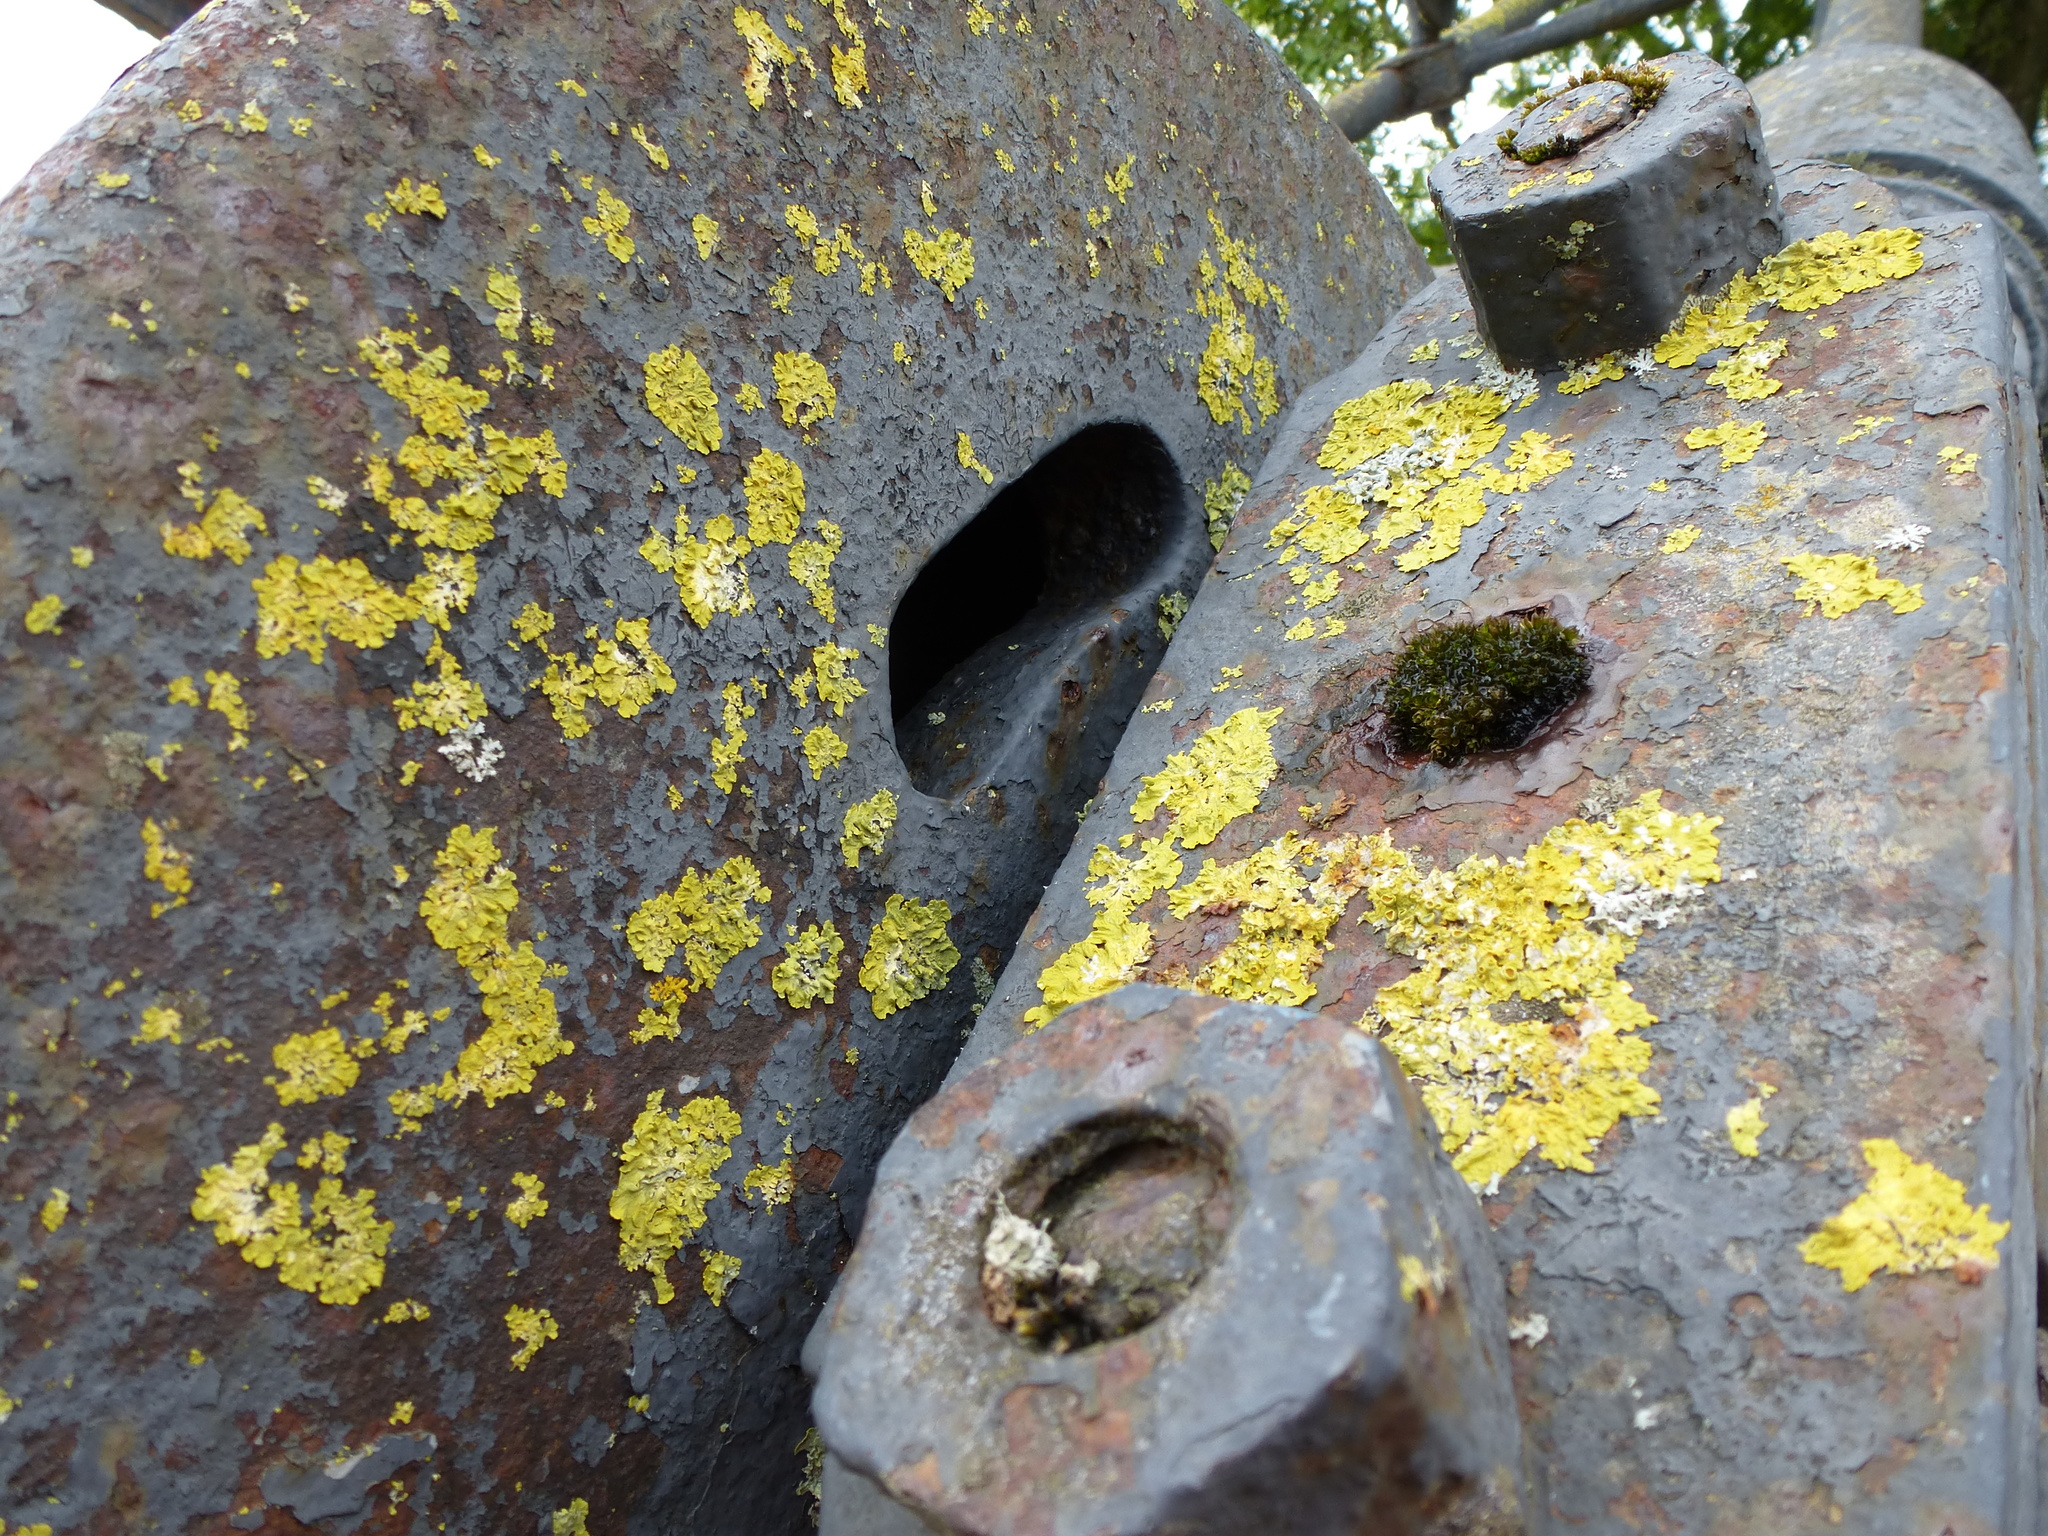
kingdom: Fungi
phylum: Ascomycota
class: Lecanoromycetes
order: Teloschistales
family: Teloschistaceae
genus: Xanthoria
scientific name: Xanthoria parietina
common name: Common orange lichen
